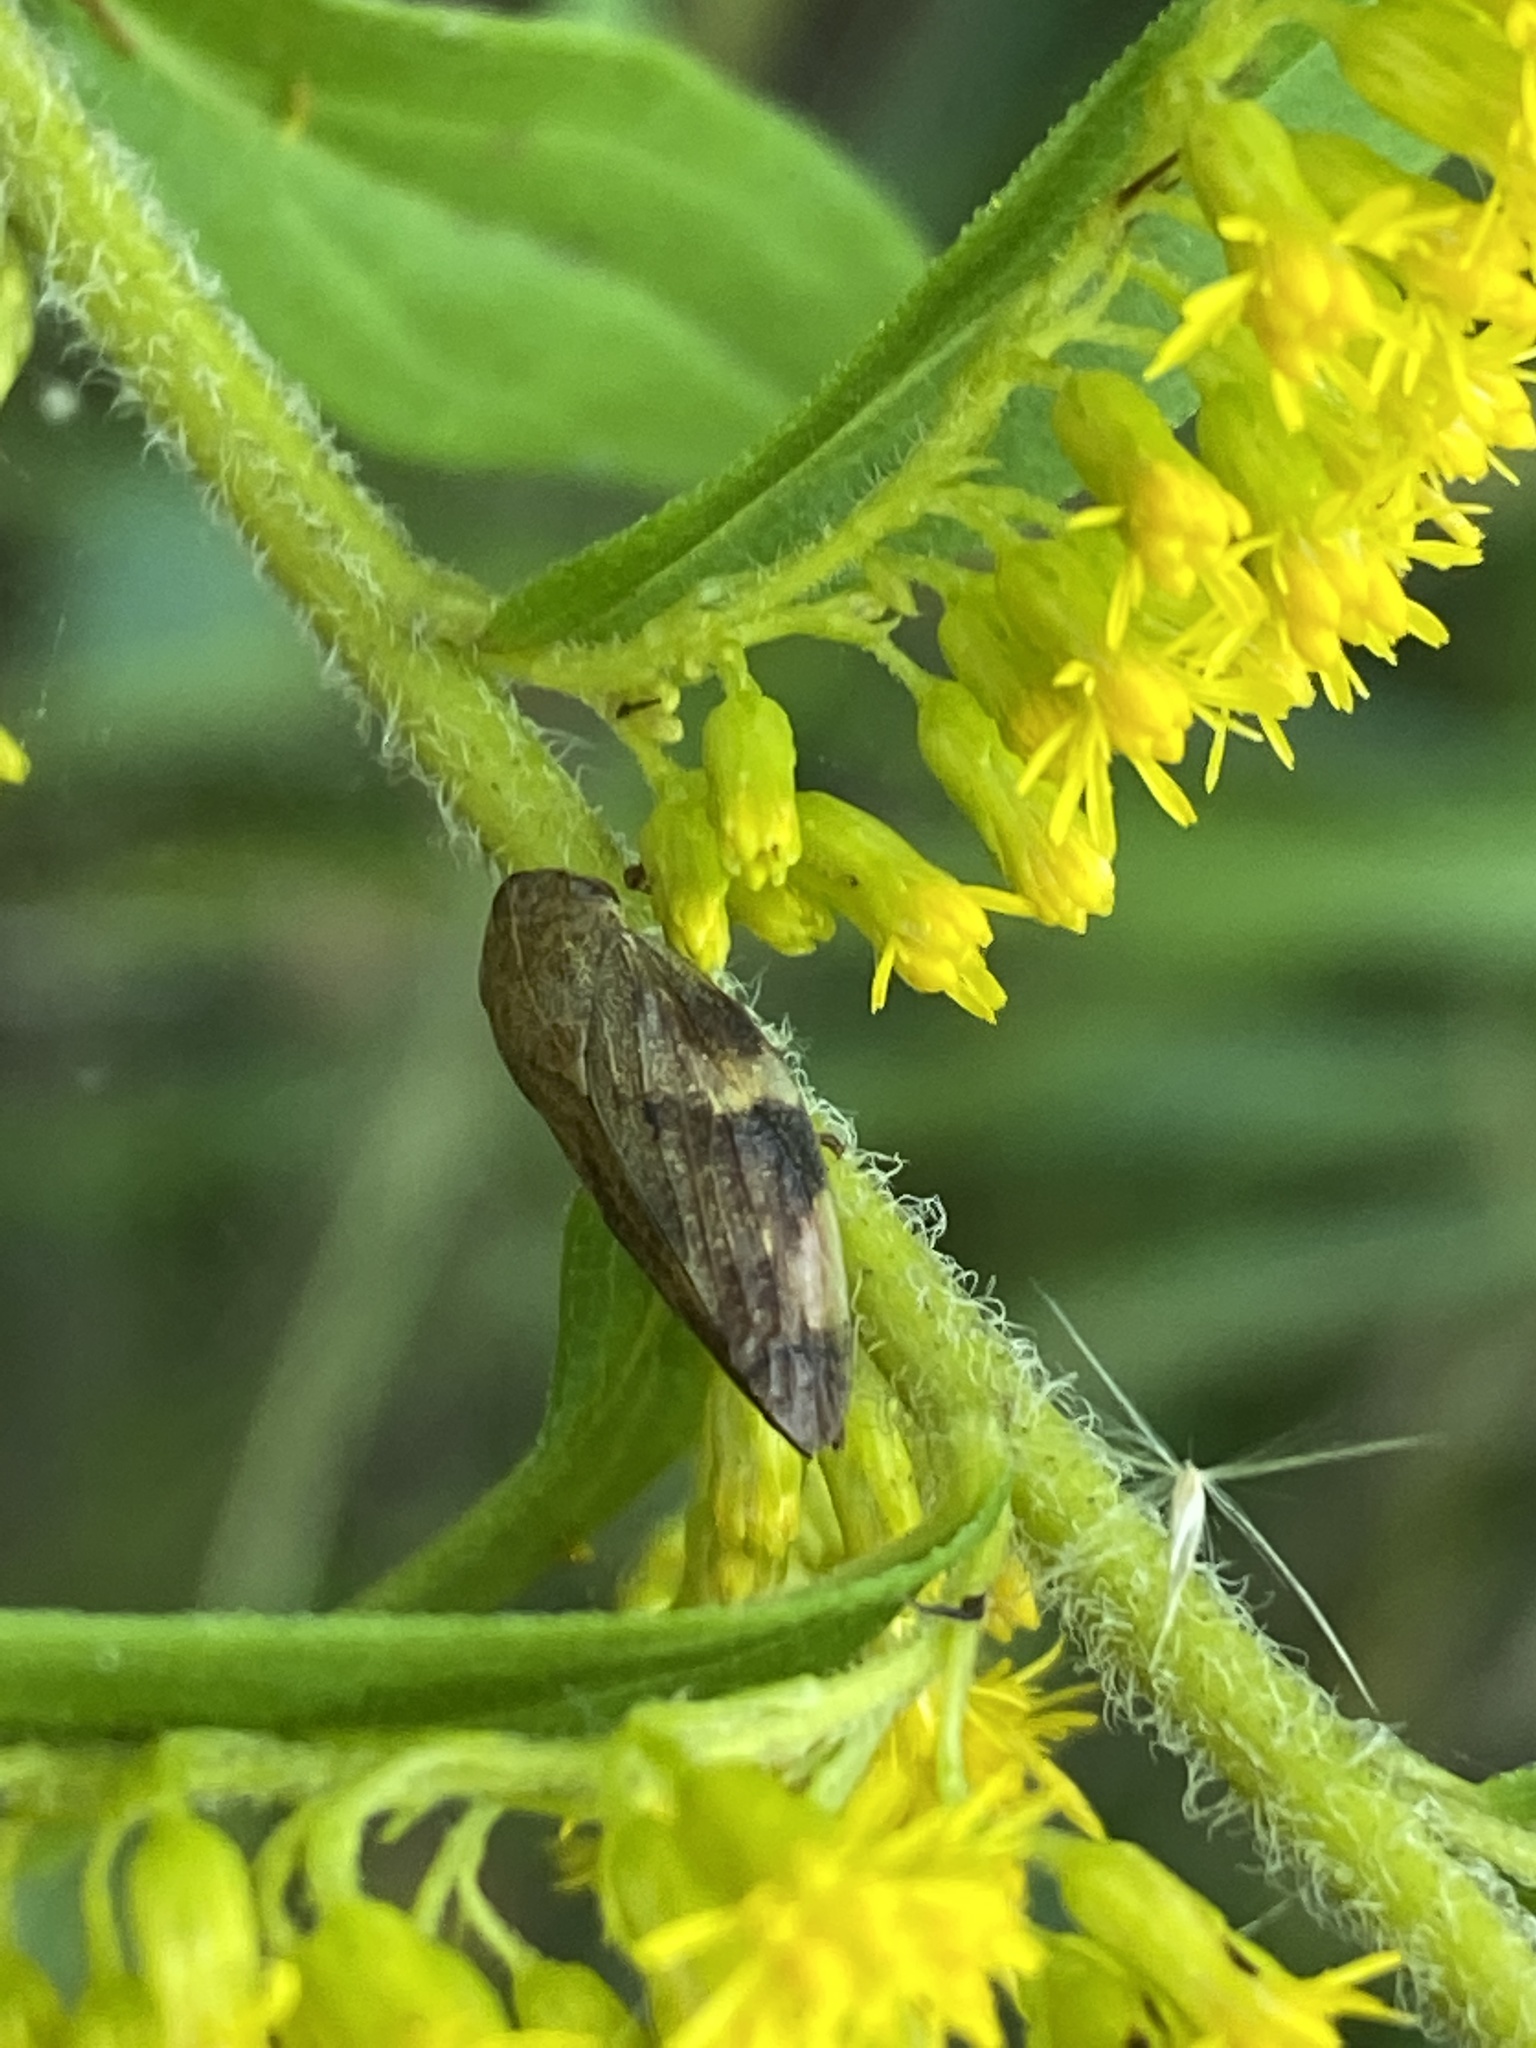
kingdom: Animalia
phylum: Arthropoda
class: Insecta
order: Hemiptera
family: Aphrophoridae
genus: Aphrophora
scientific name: Aphrophora alni
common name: European alder spittlebug
